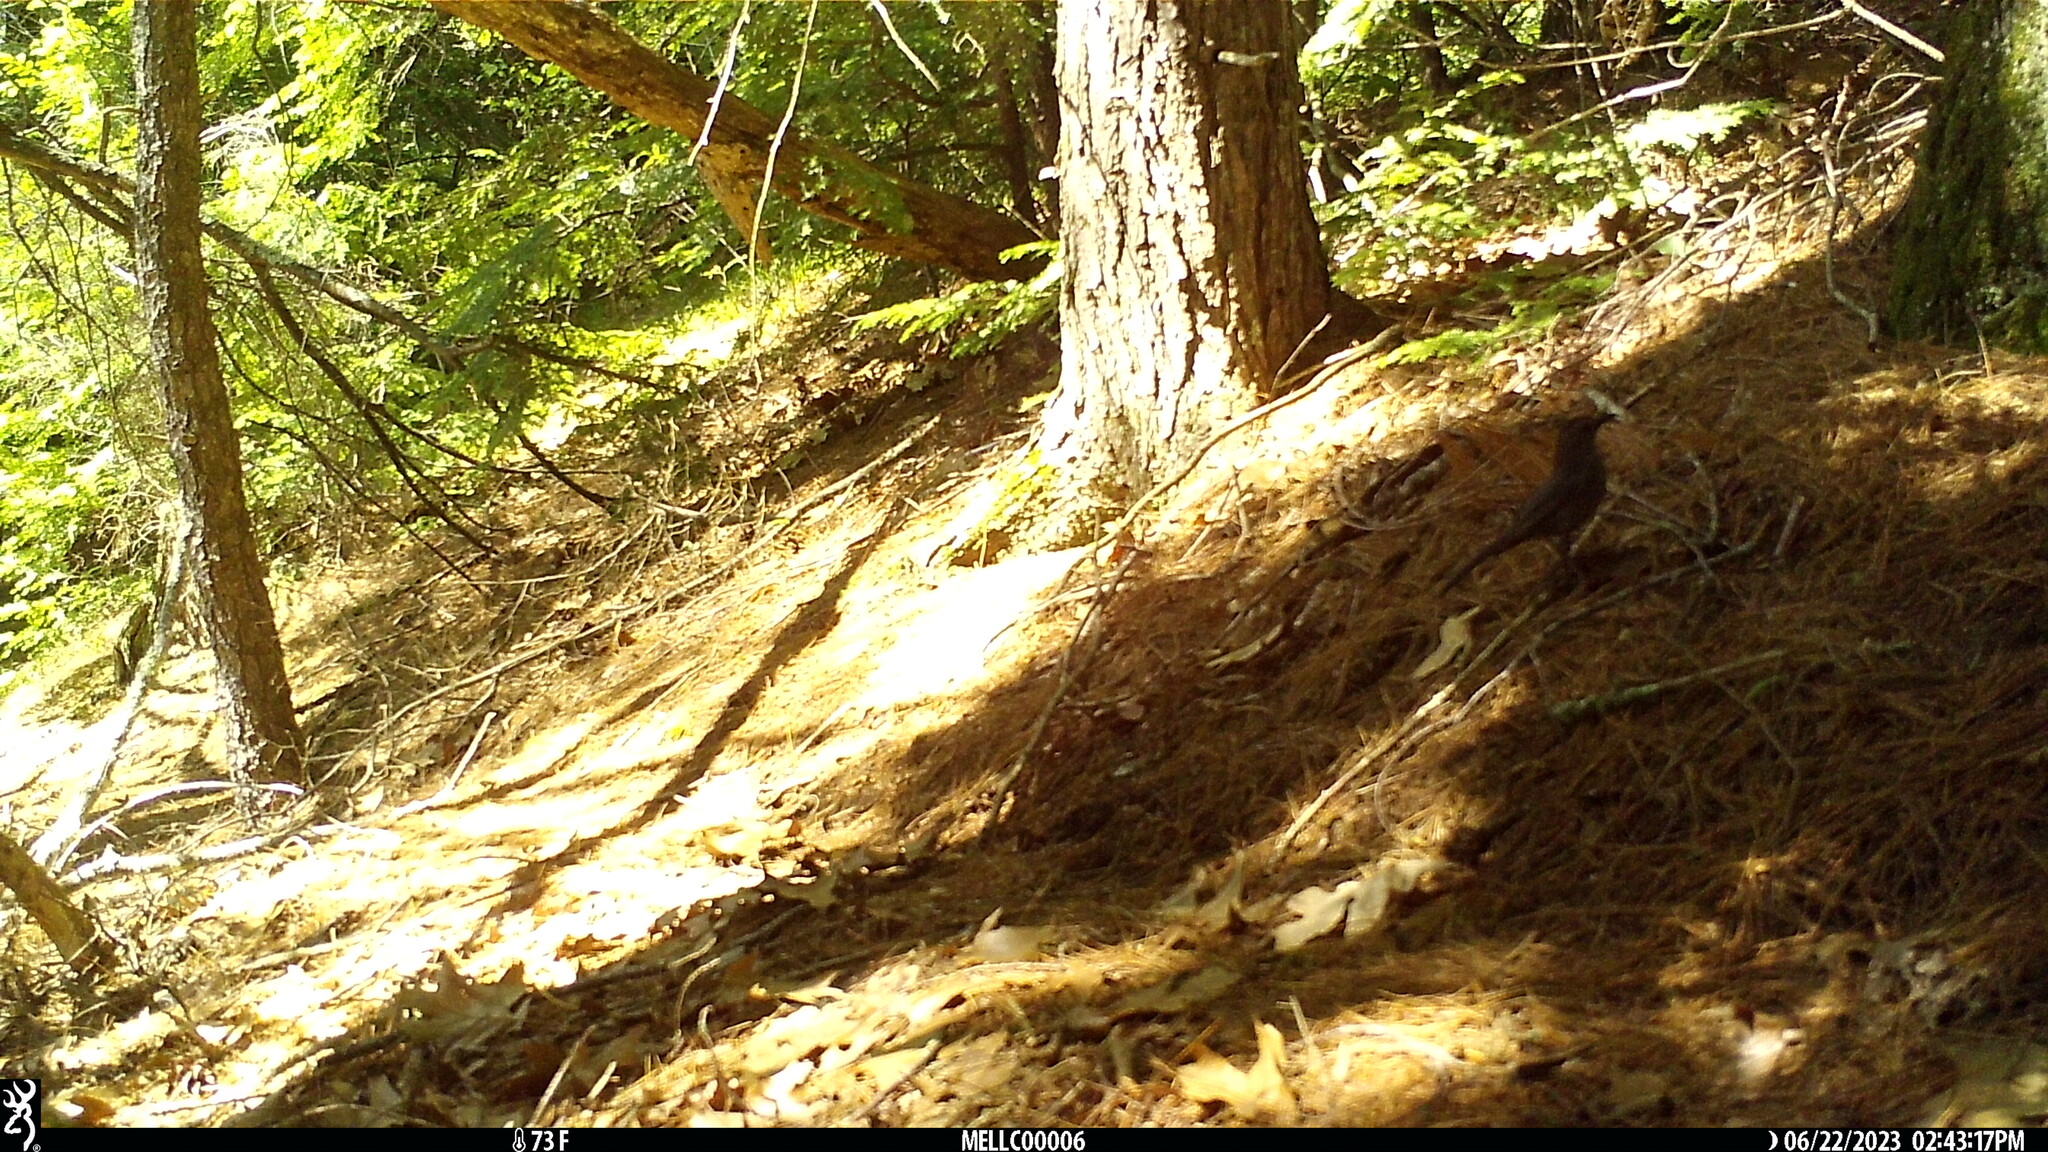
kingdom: Animalia
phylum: Chordata
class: Aves
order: Passeriformes
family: Mimidae
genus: Dumetella
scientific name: Dumetella carolinensis
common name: Gray catbird
